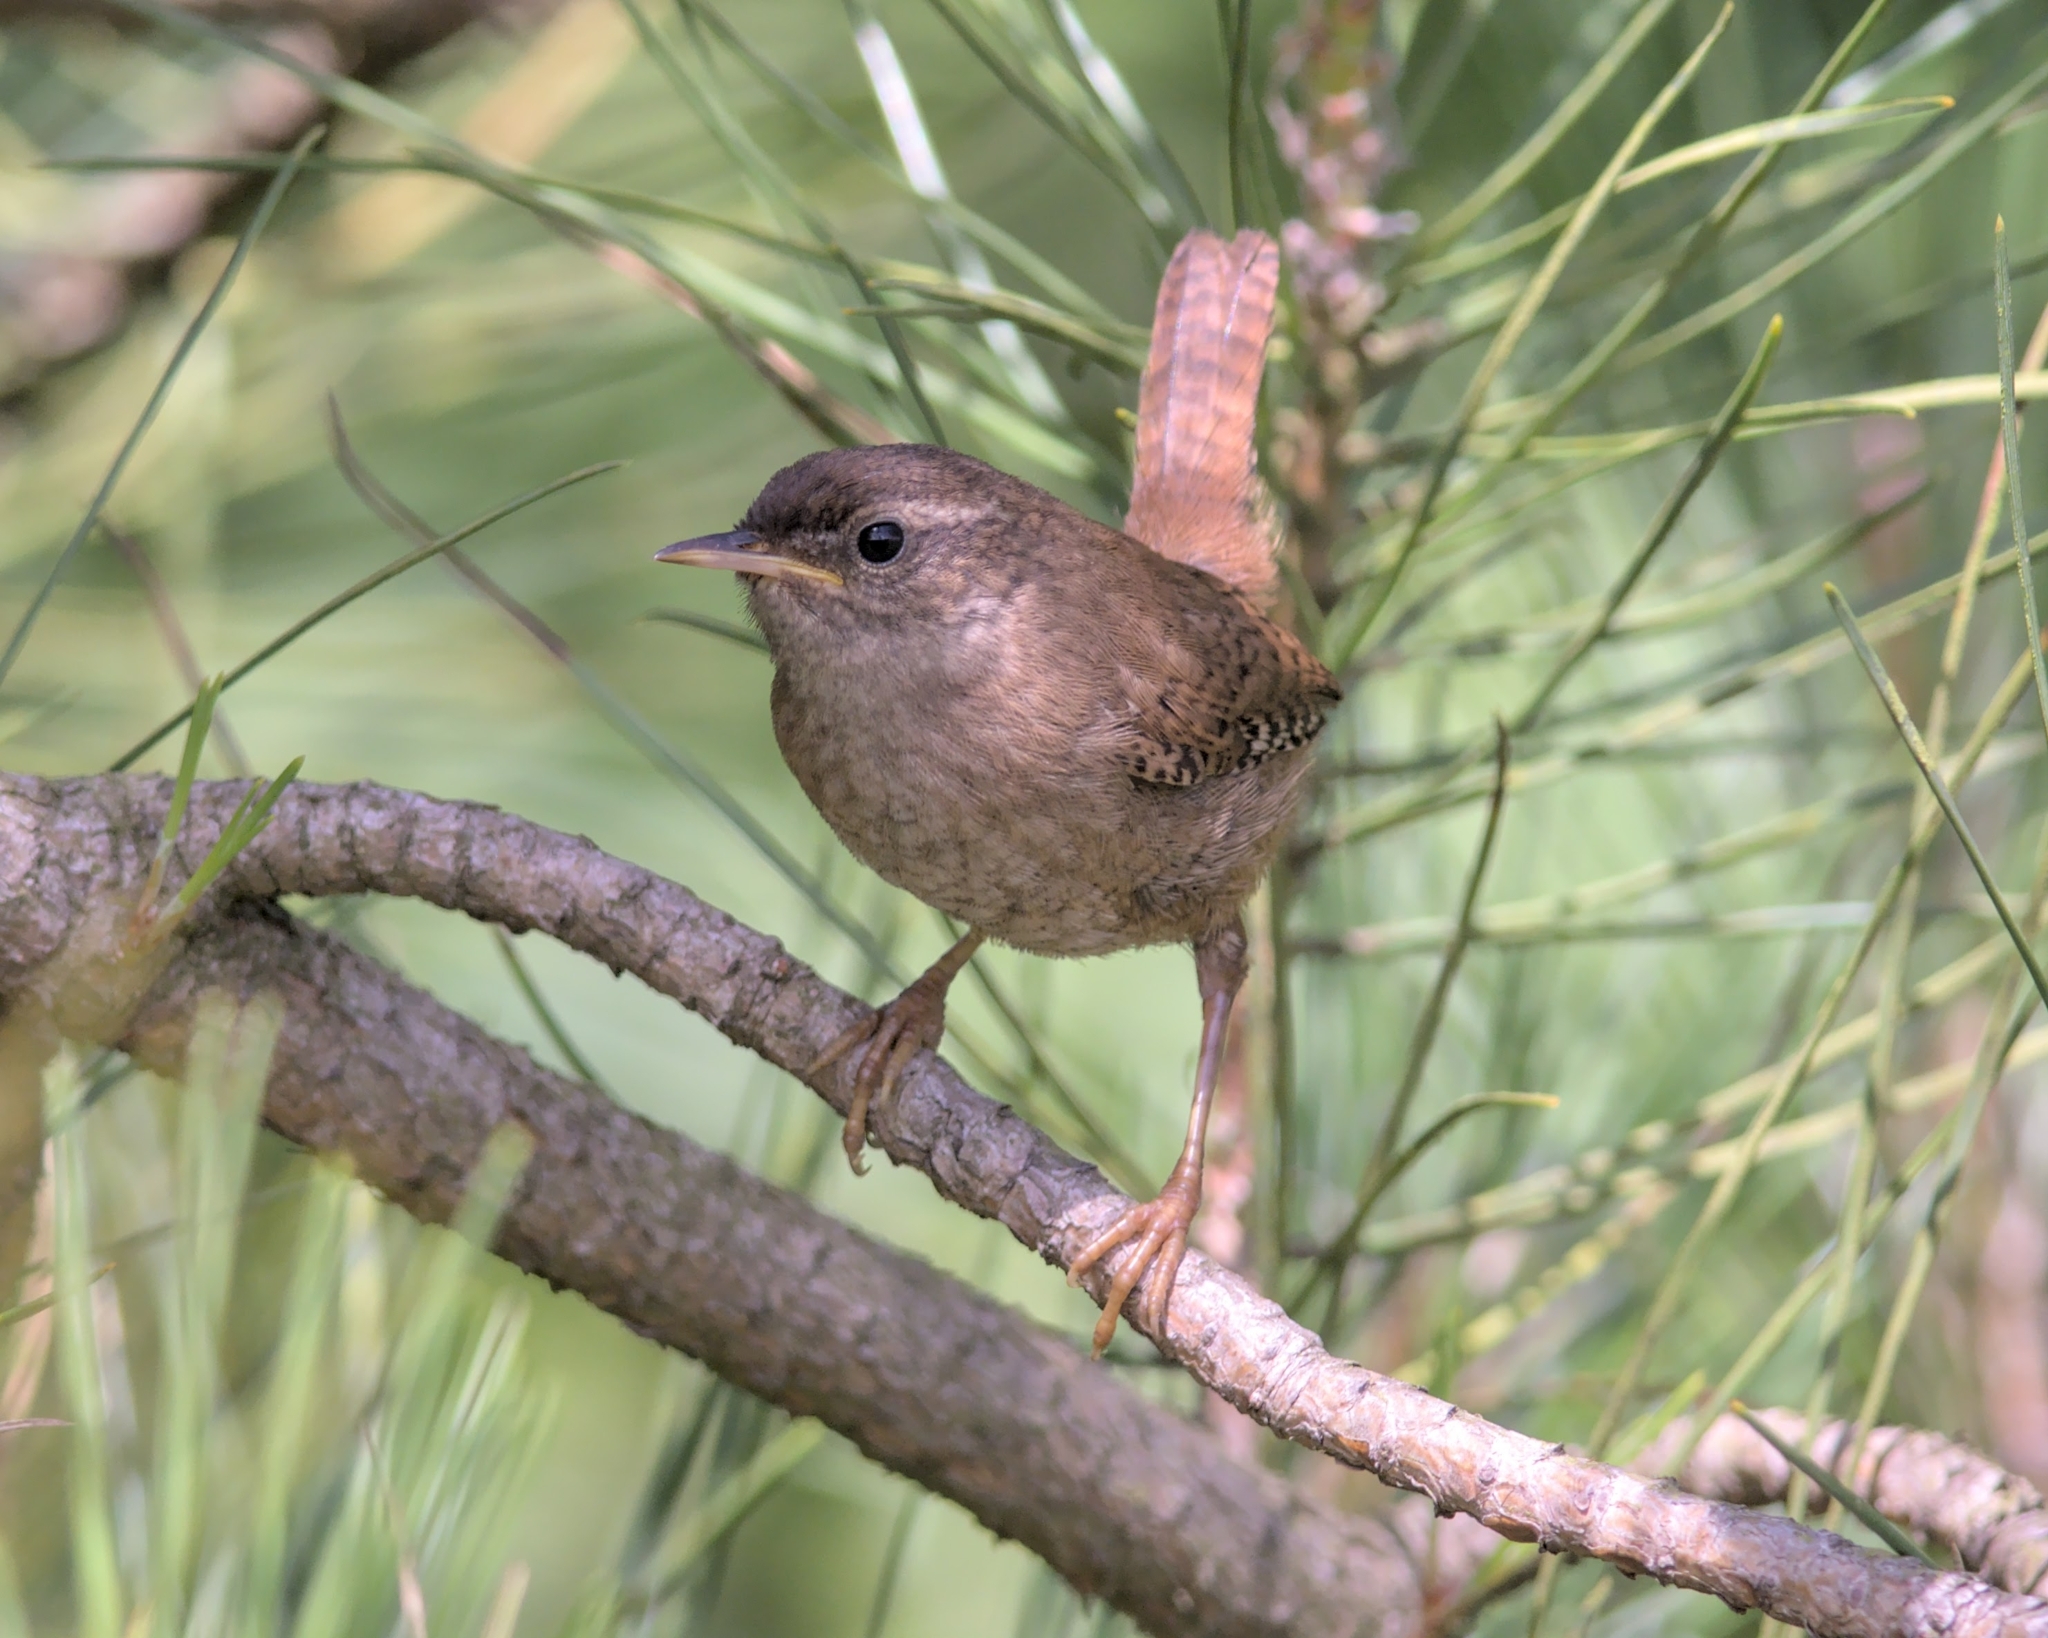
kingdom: Animalia
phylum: Chordata
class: Aves
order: Passeriformes
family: Troglodytidae
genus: Troglodytes
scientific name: Troglodytes troglodytes
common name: Eurasian wren
